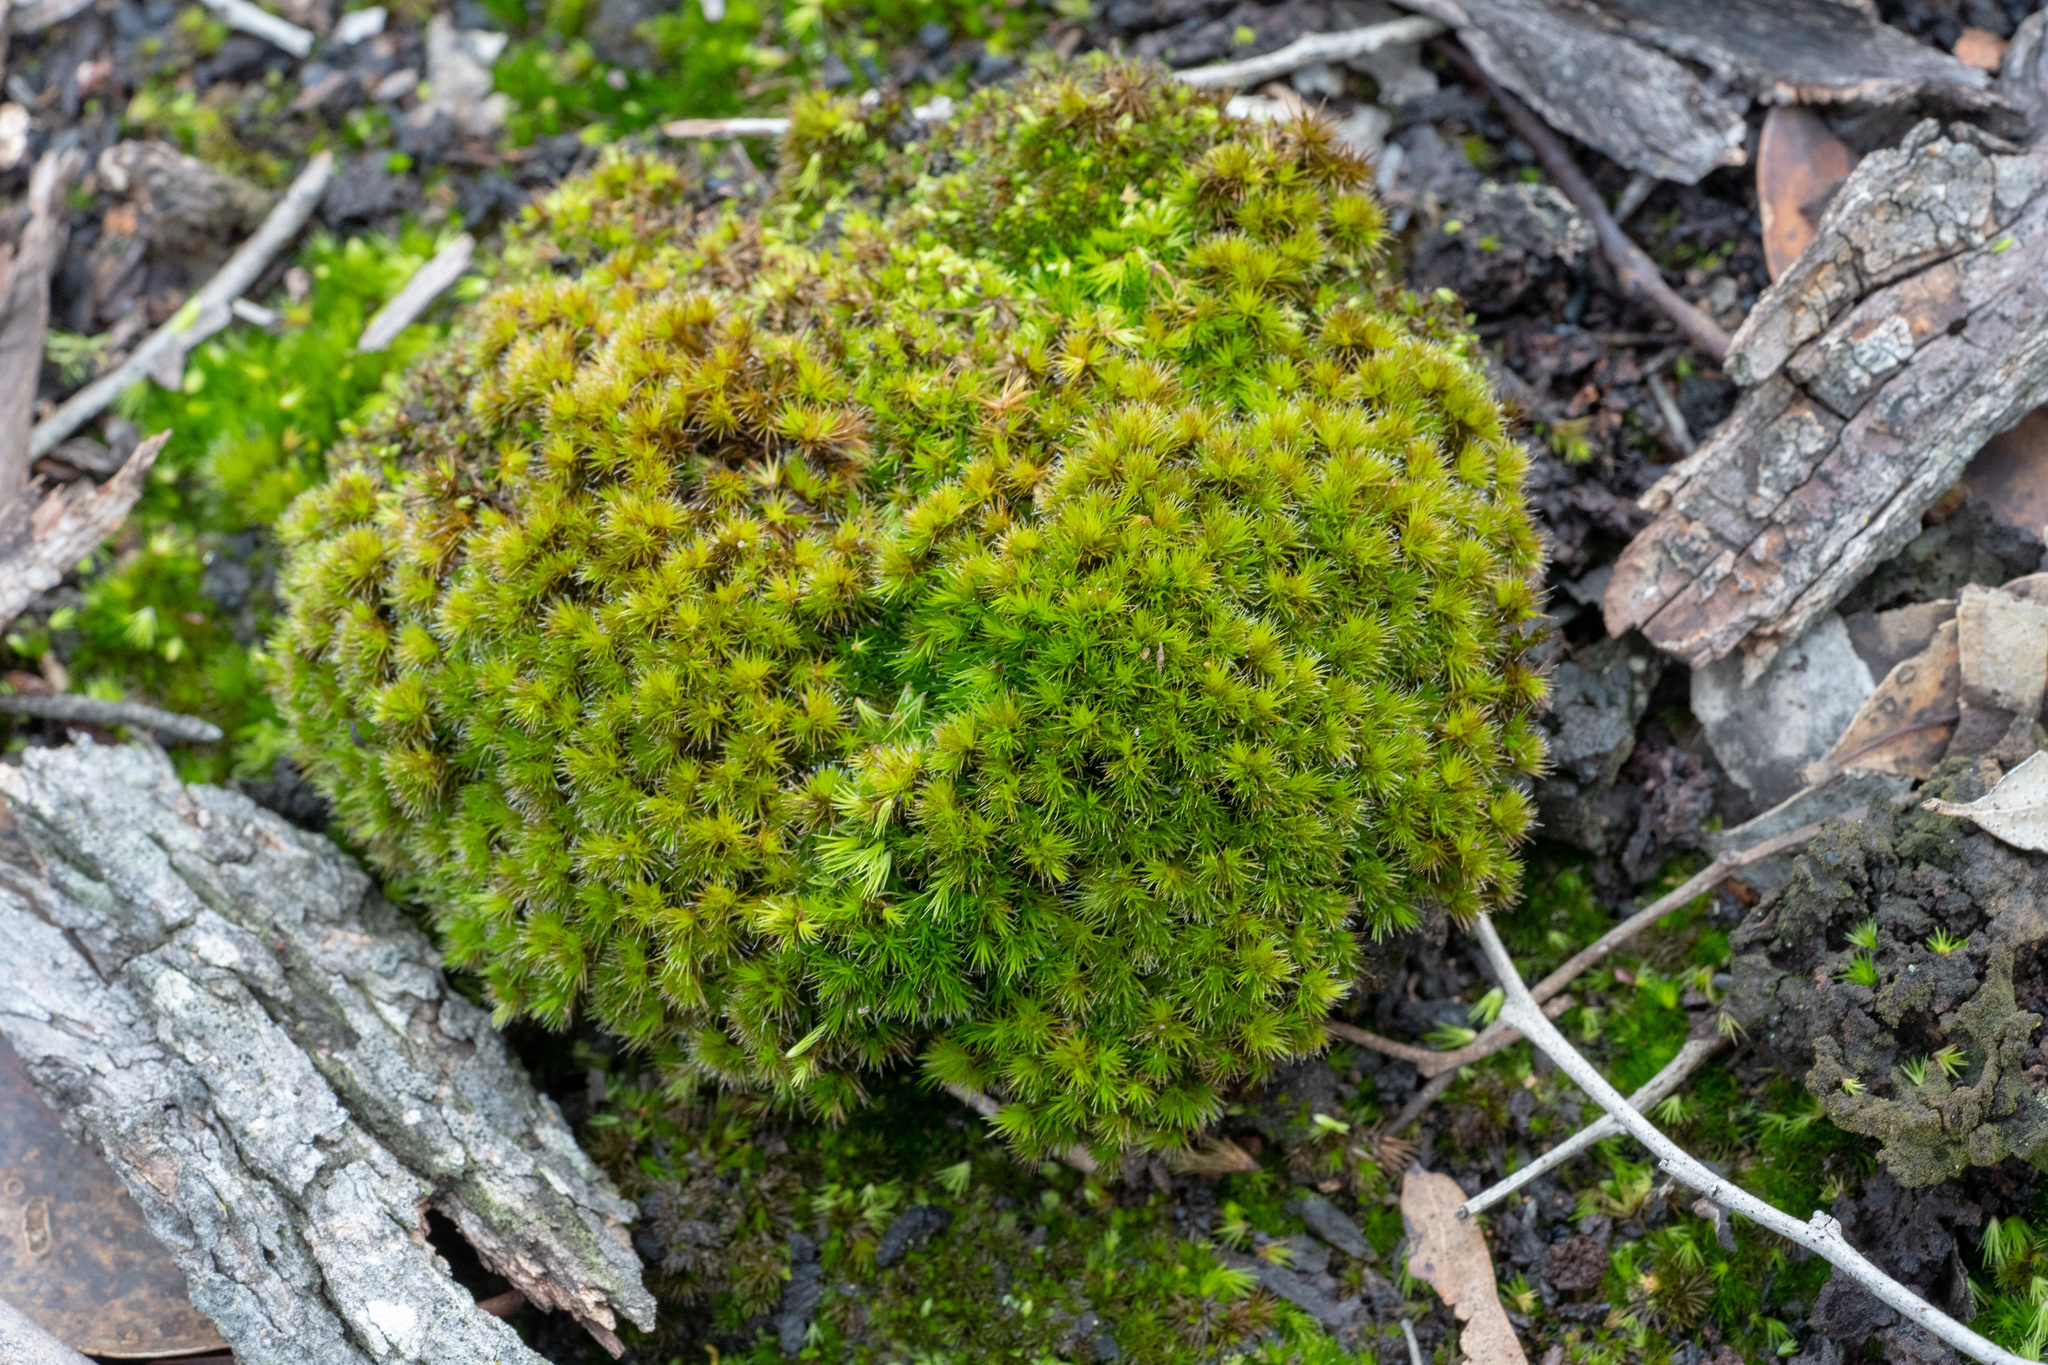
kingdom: Plantae
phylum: Bryophyta
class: Bryopsida
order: Dicranales
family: Leucobryaceae
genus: Campylopus
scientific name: Campylopus clavatus
